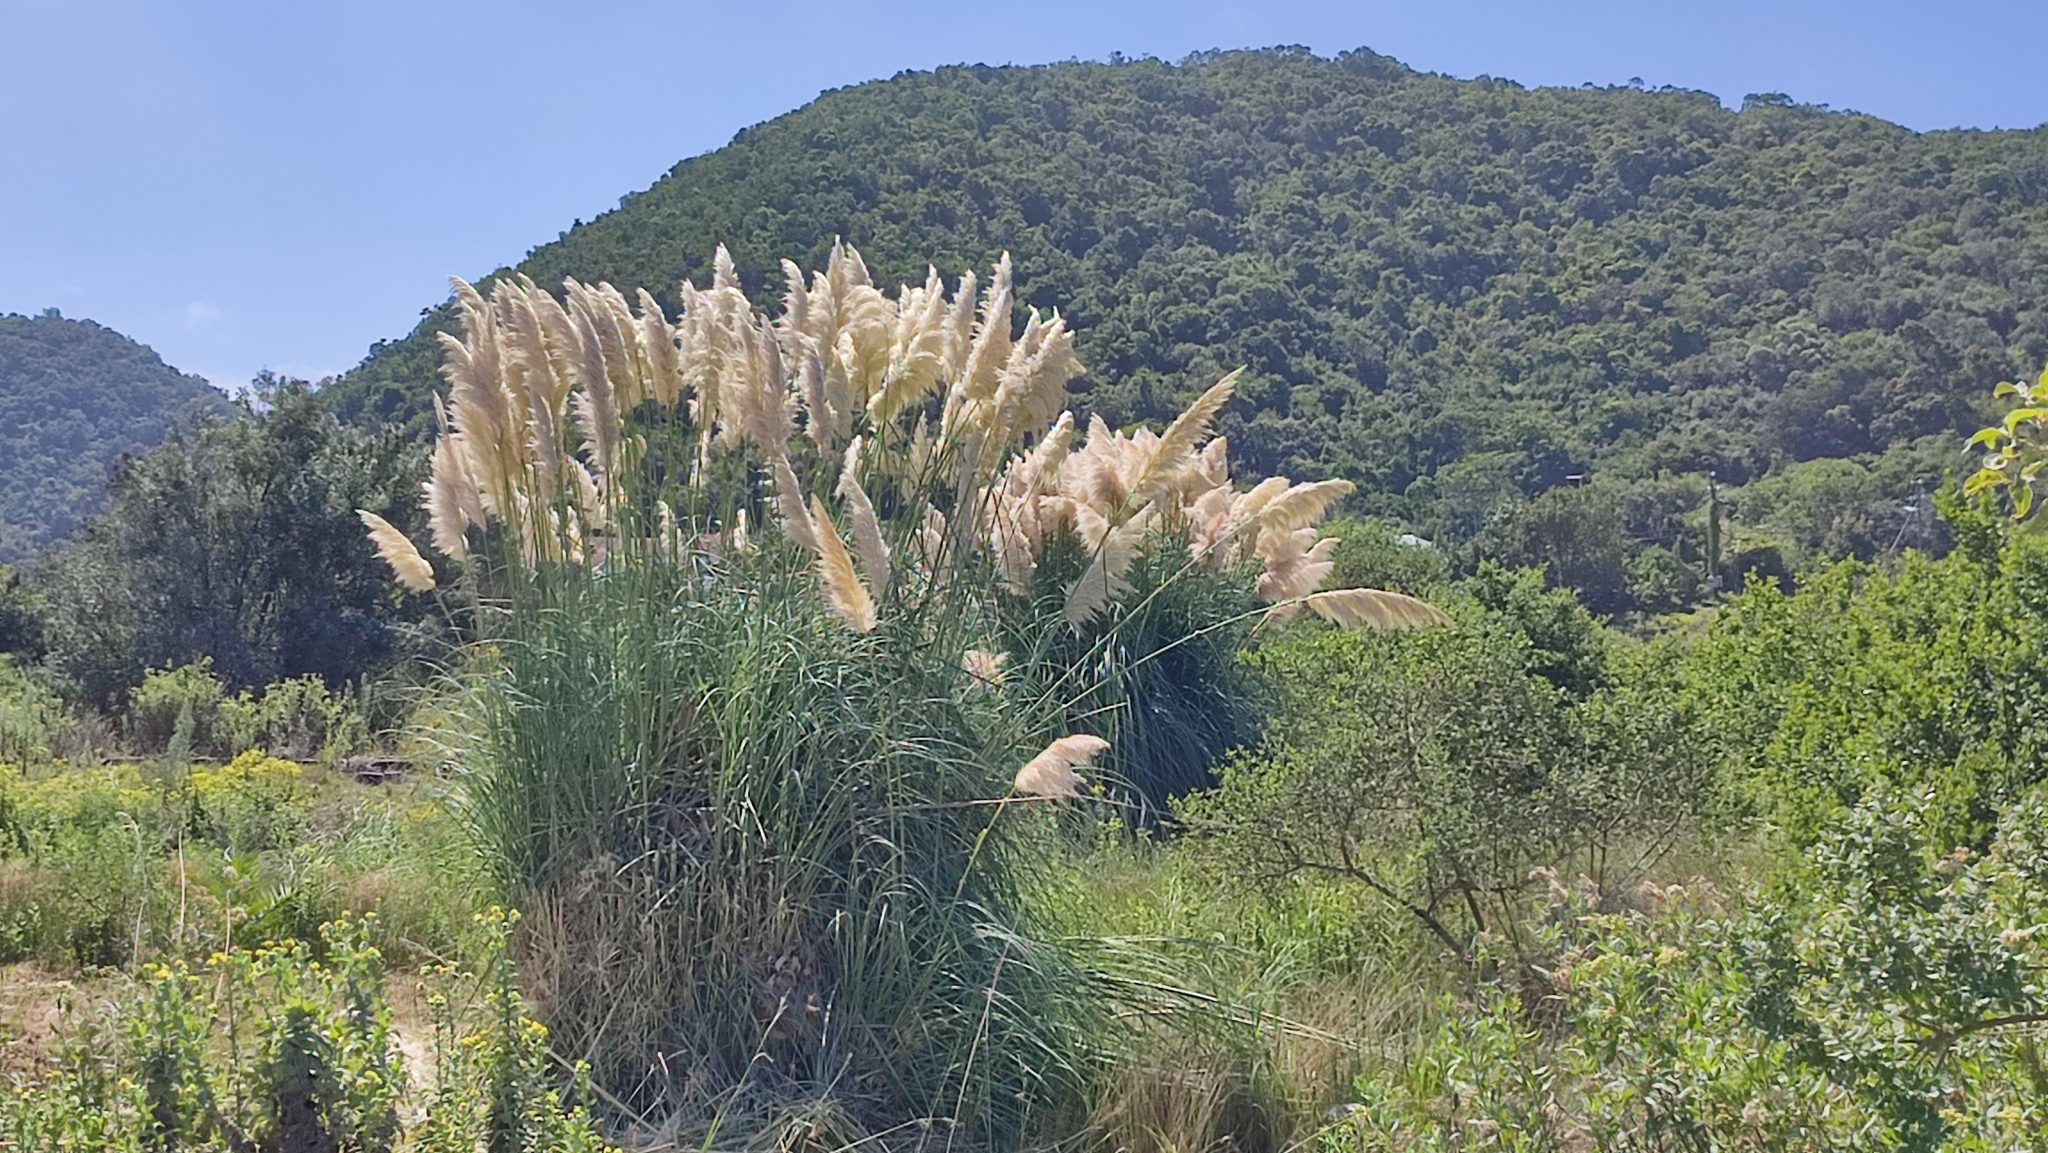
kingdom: Plantae
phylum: Tracheophyta
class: Liliopsida
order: Poales
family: Poaceae
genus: Cortaderia
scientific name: Cortaderia selloana
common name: Uruguayan pampas grass
